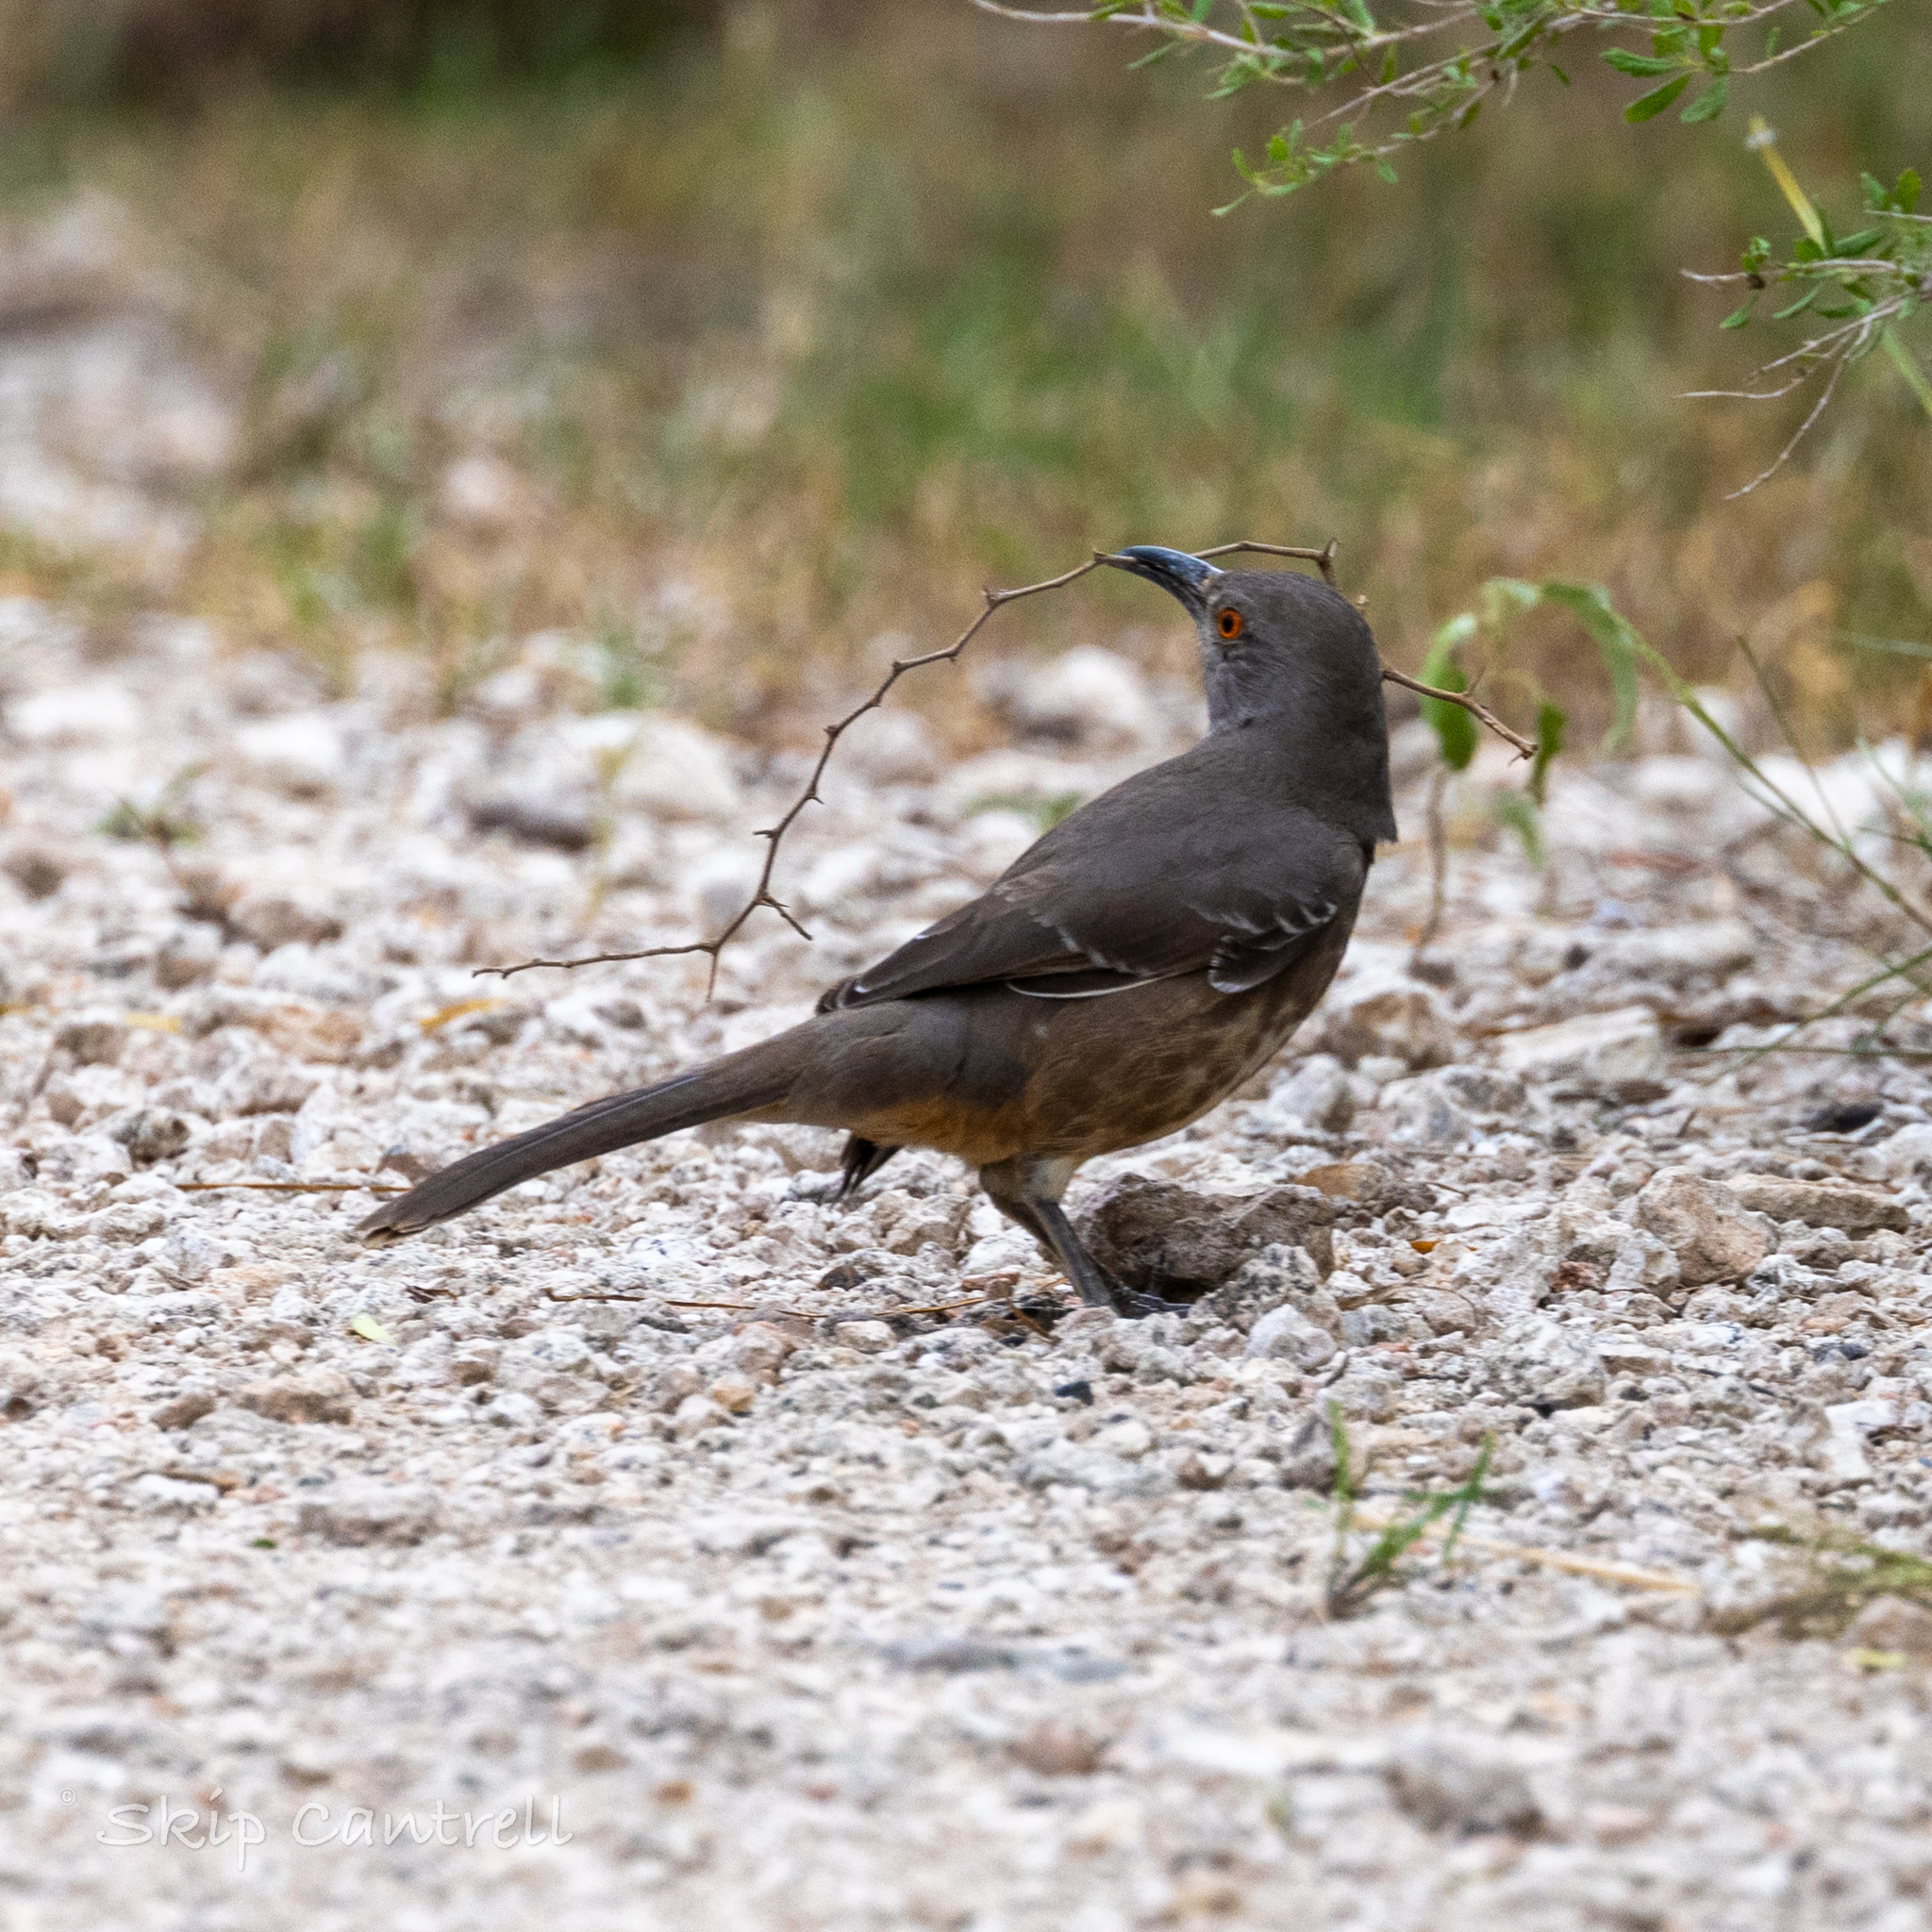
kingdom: Animalia
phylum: Chordata
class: Aves
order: Passeriformes
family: Mimidae
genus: Toxostoma
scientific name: Toxostoma curvirostre
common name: Curve-billed thrasher
